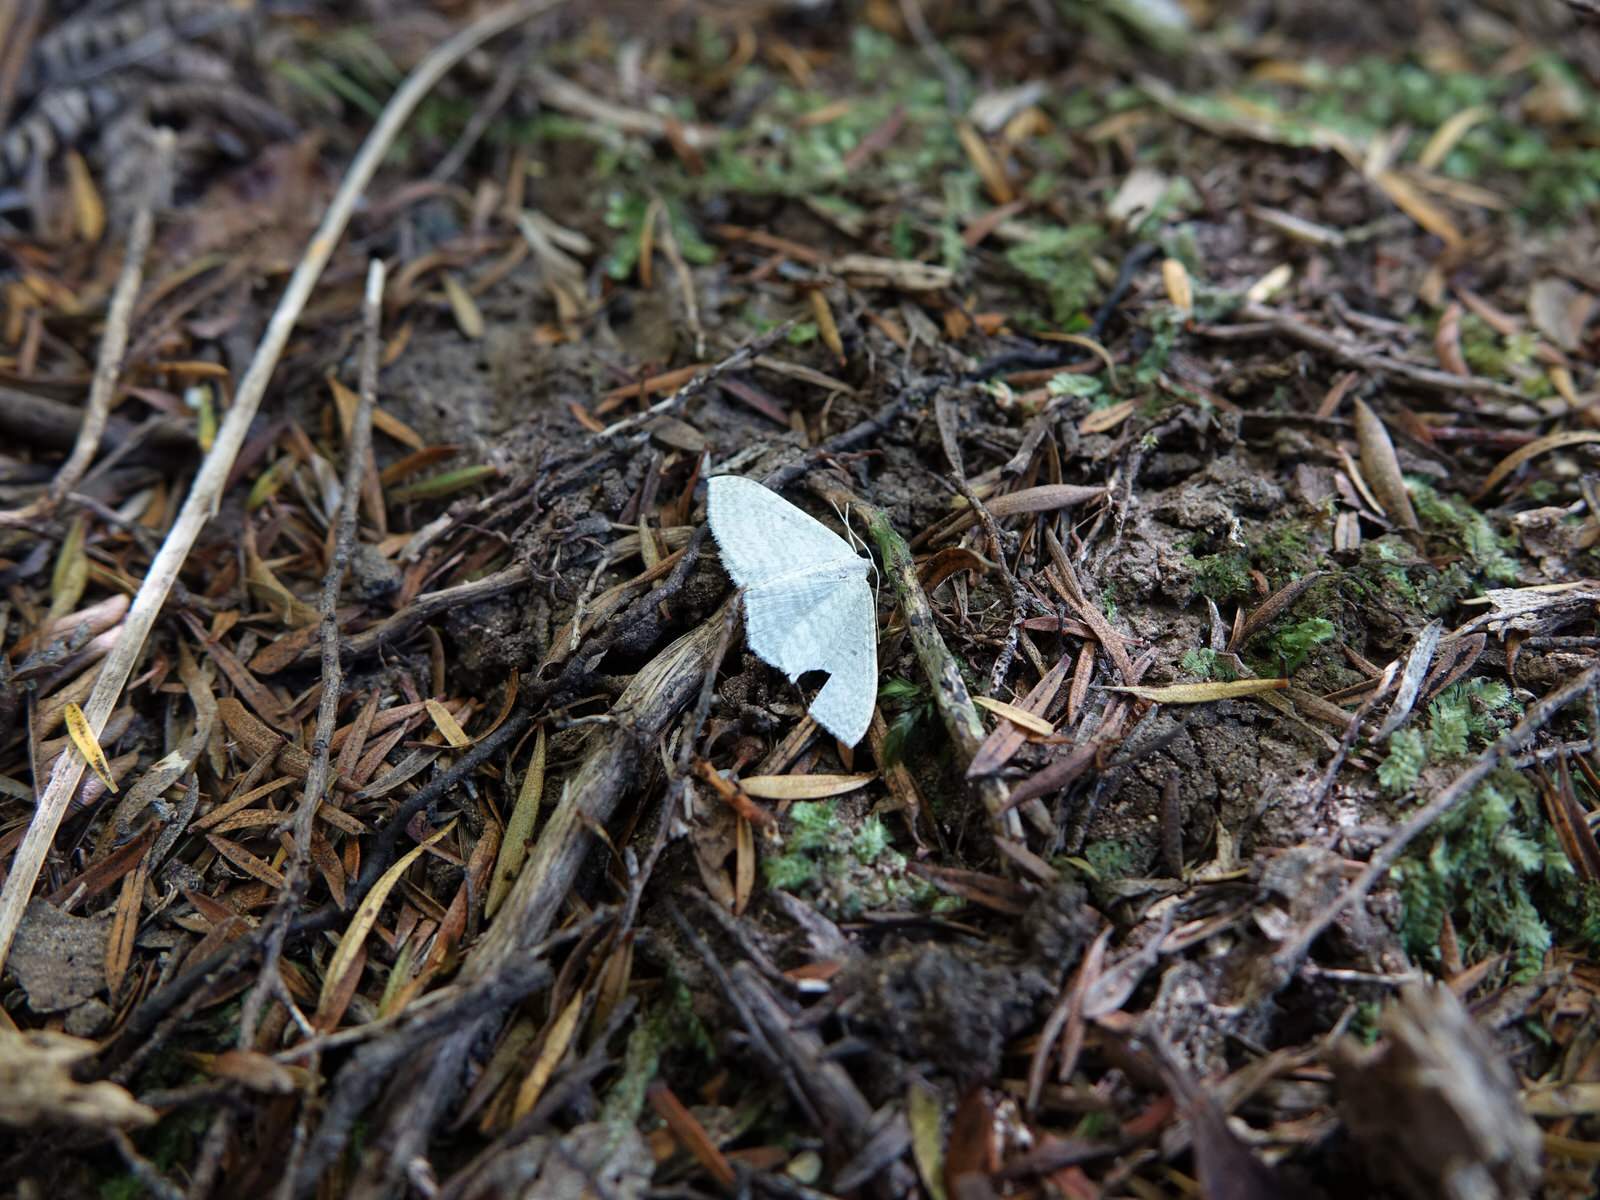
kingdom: Animalia
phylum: Arthropoda
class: Insecta
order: Lepidoptera
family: Geometridae
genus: Poecilasthena
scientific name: Poecilasthena pulchraria
